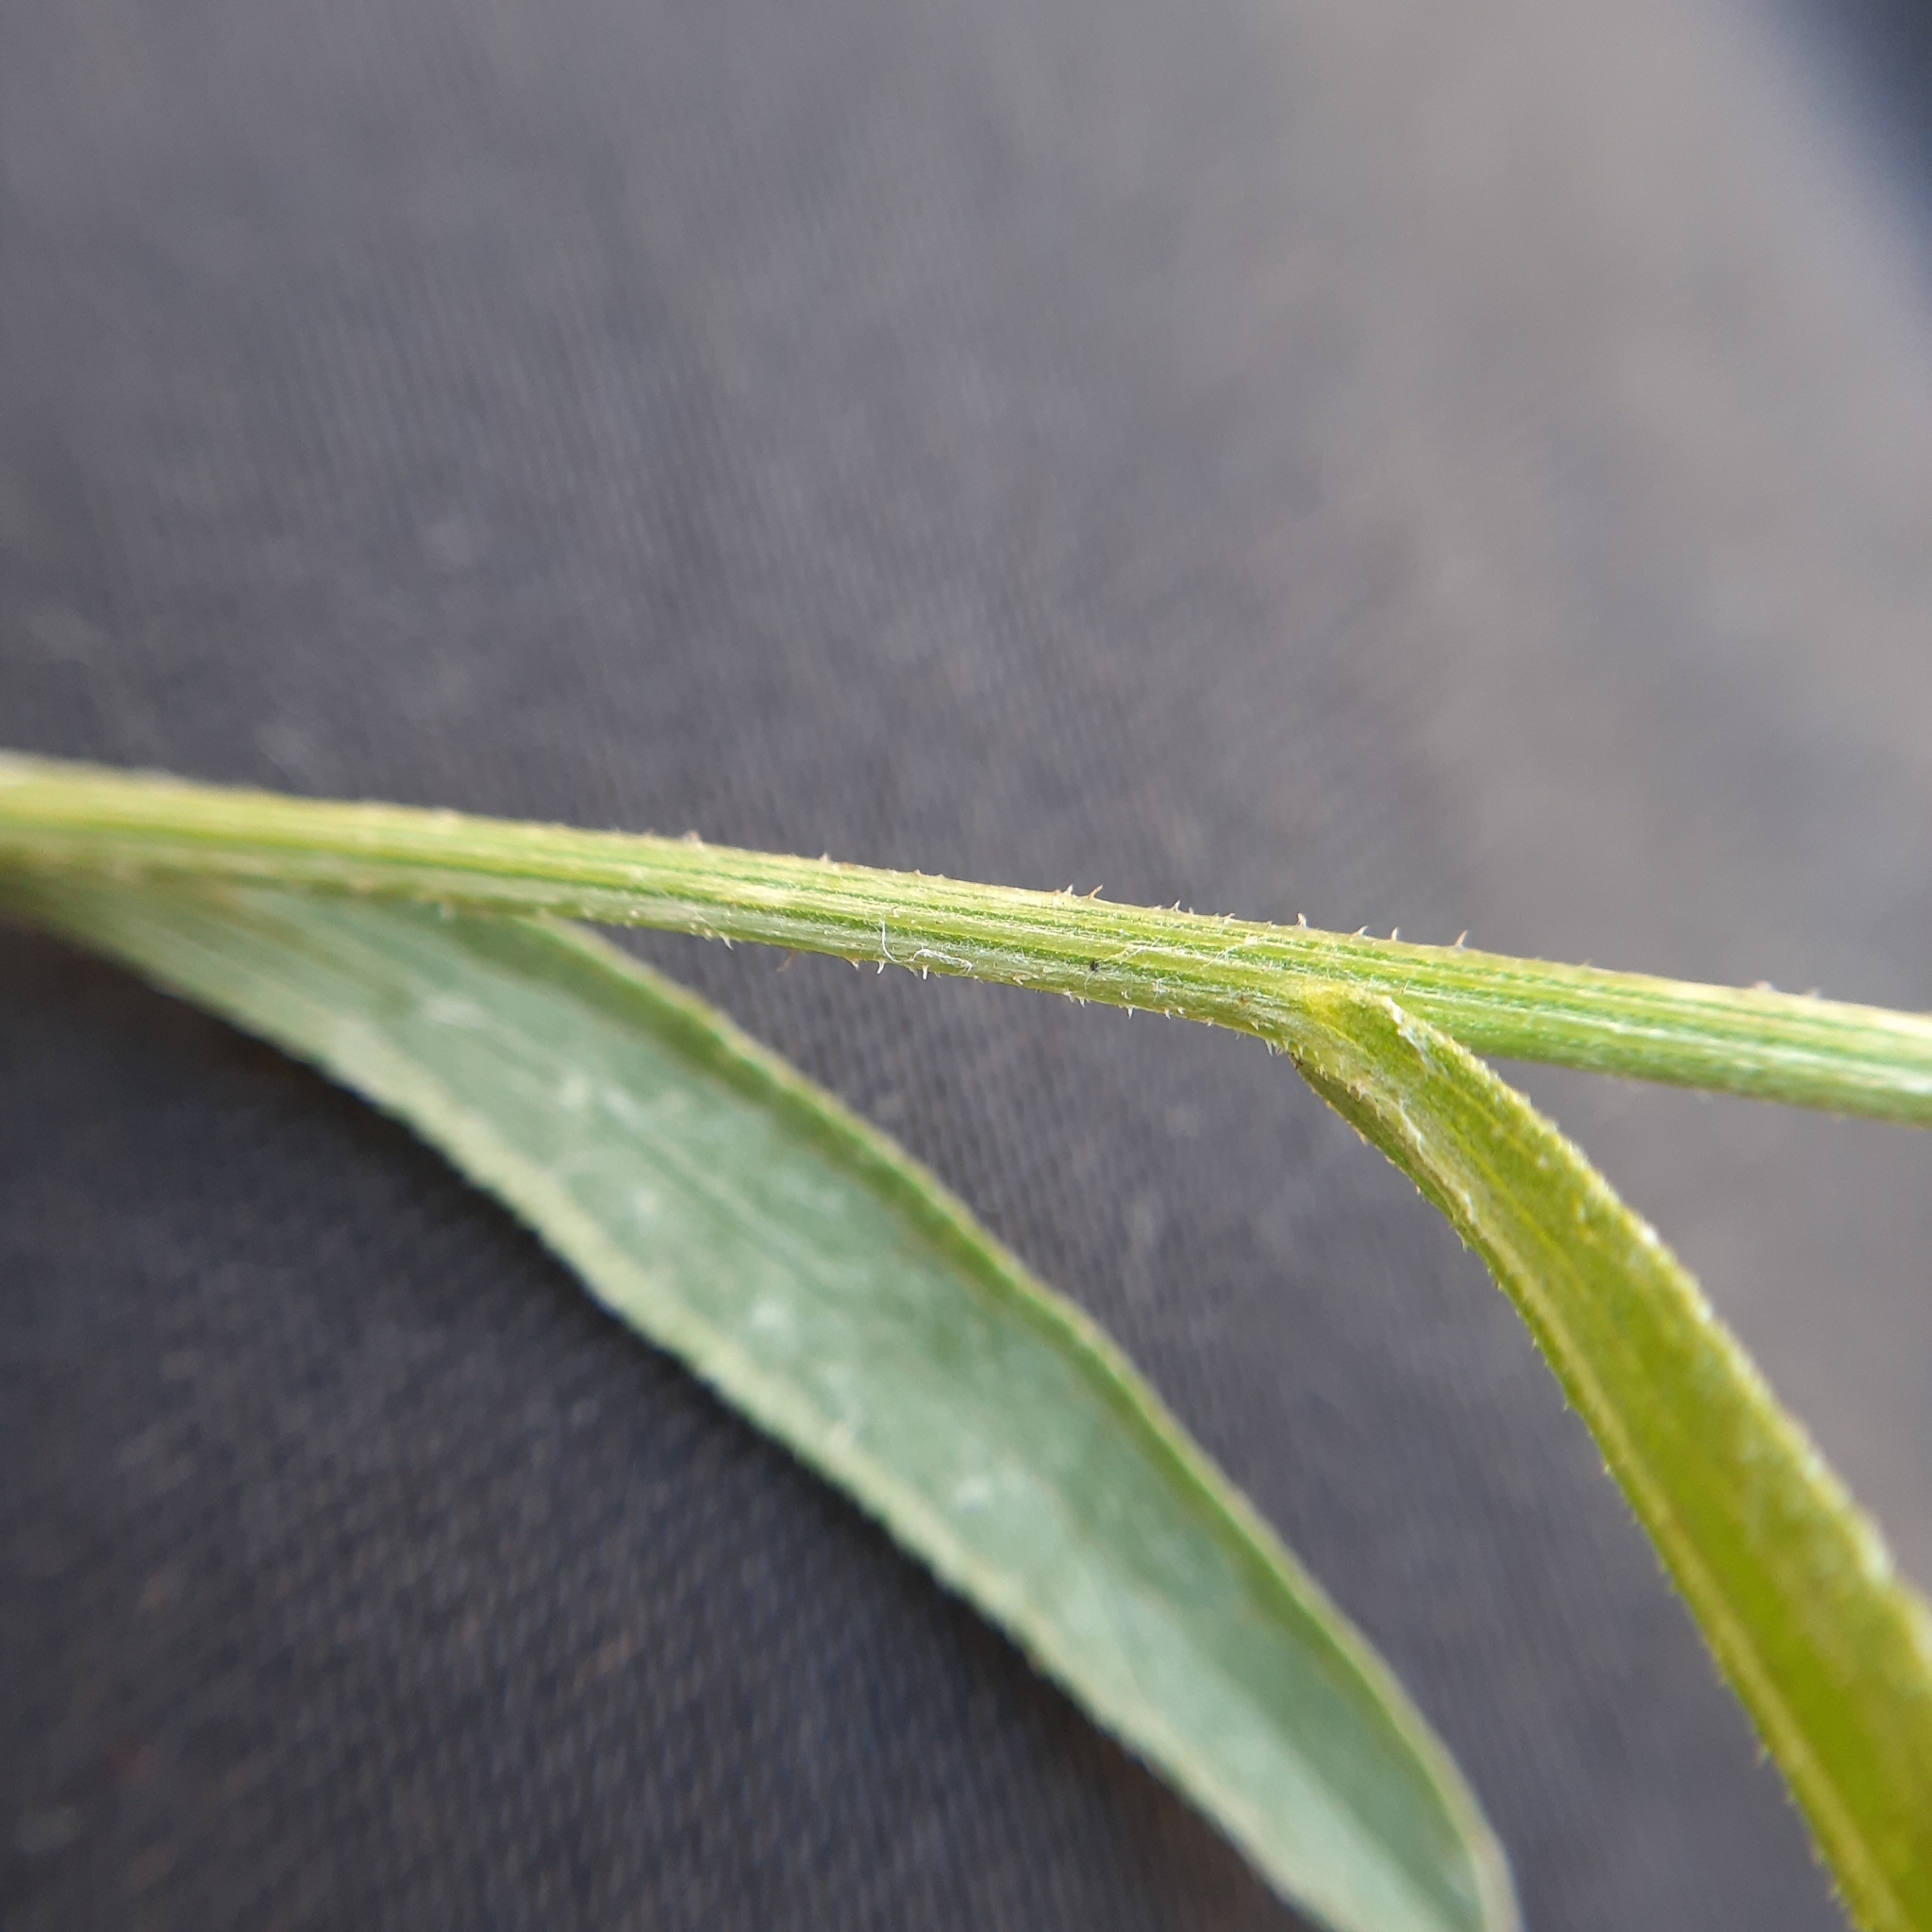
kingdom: Plantae
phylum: Tracheophyta
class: Magnoliopsida
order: Asterales
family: Asteraceae
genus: Centaurea
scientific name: Centaurea jacea
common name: Brown knapweed
